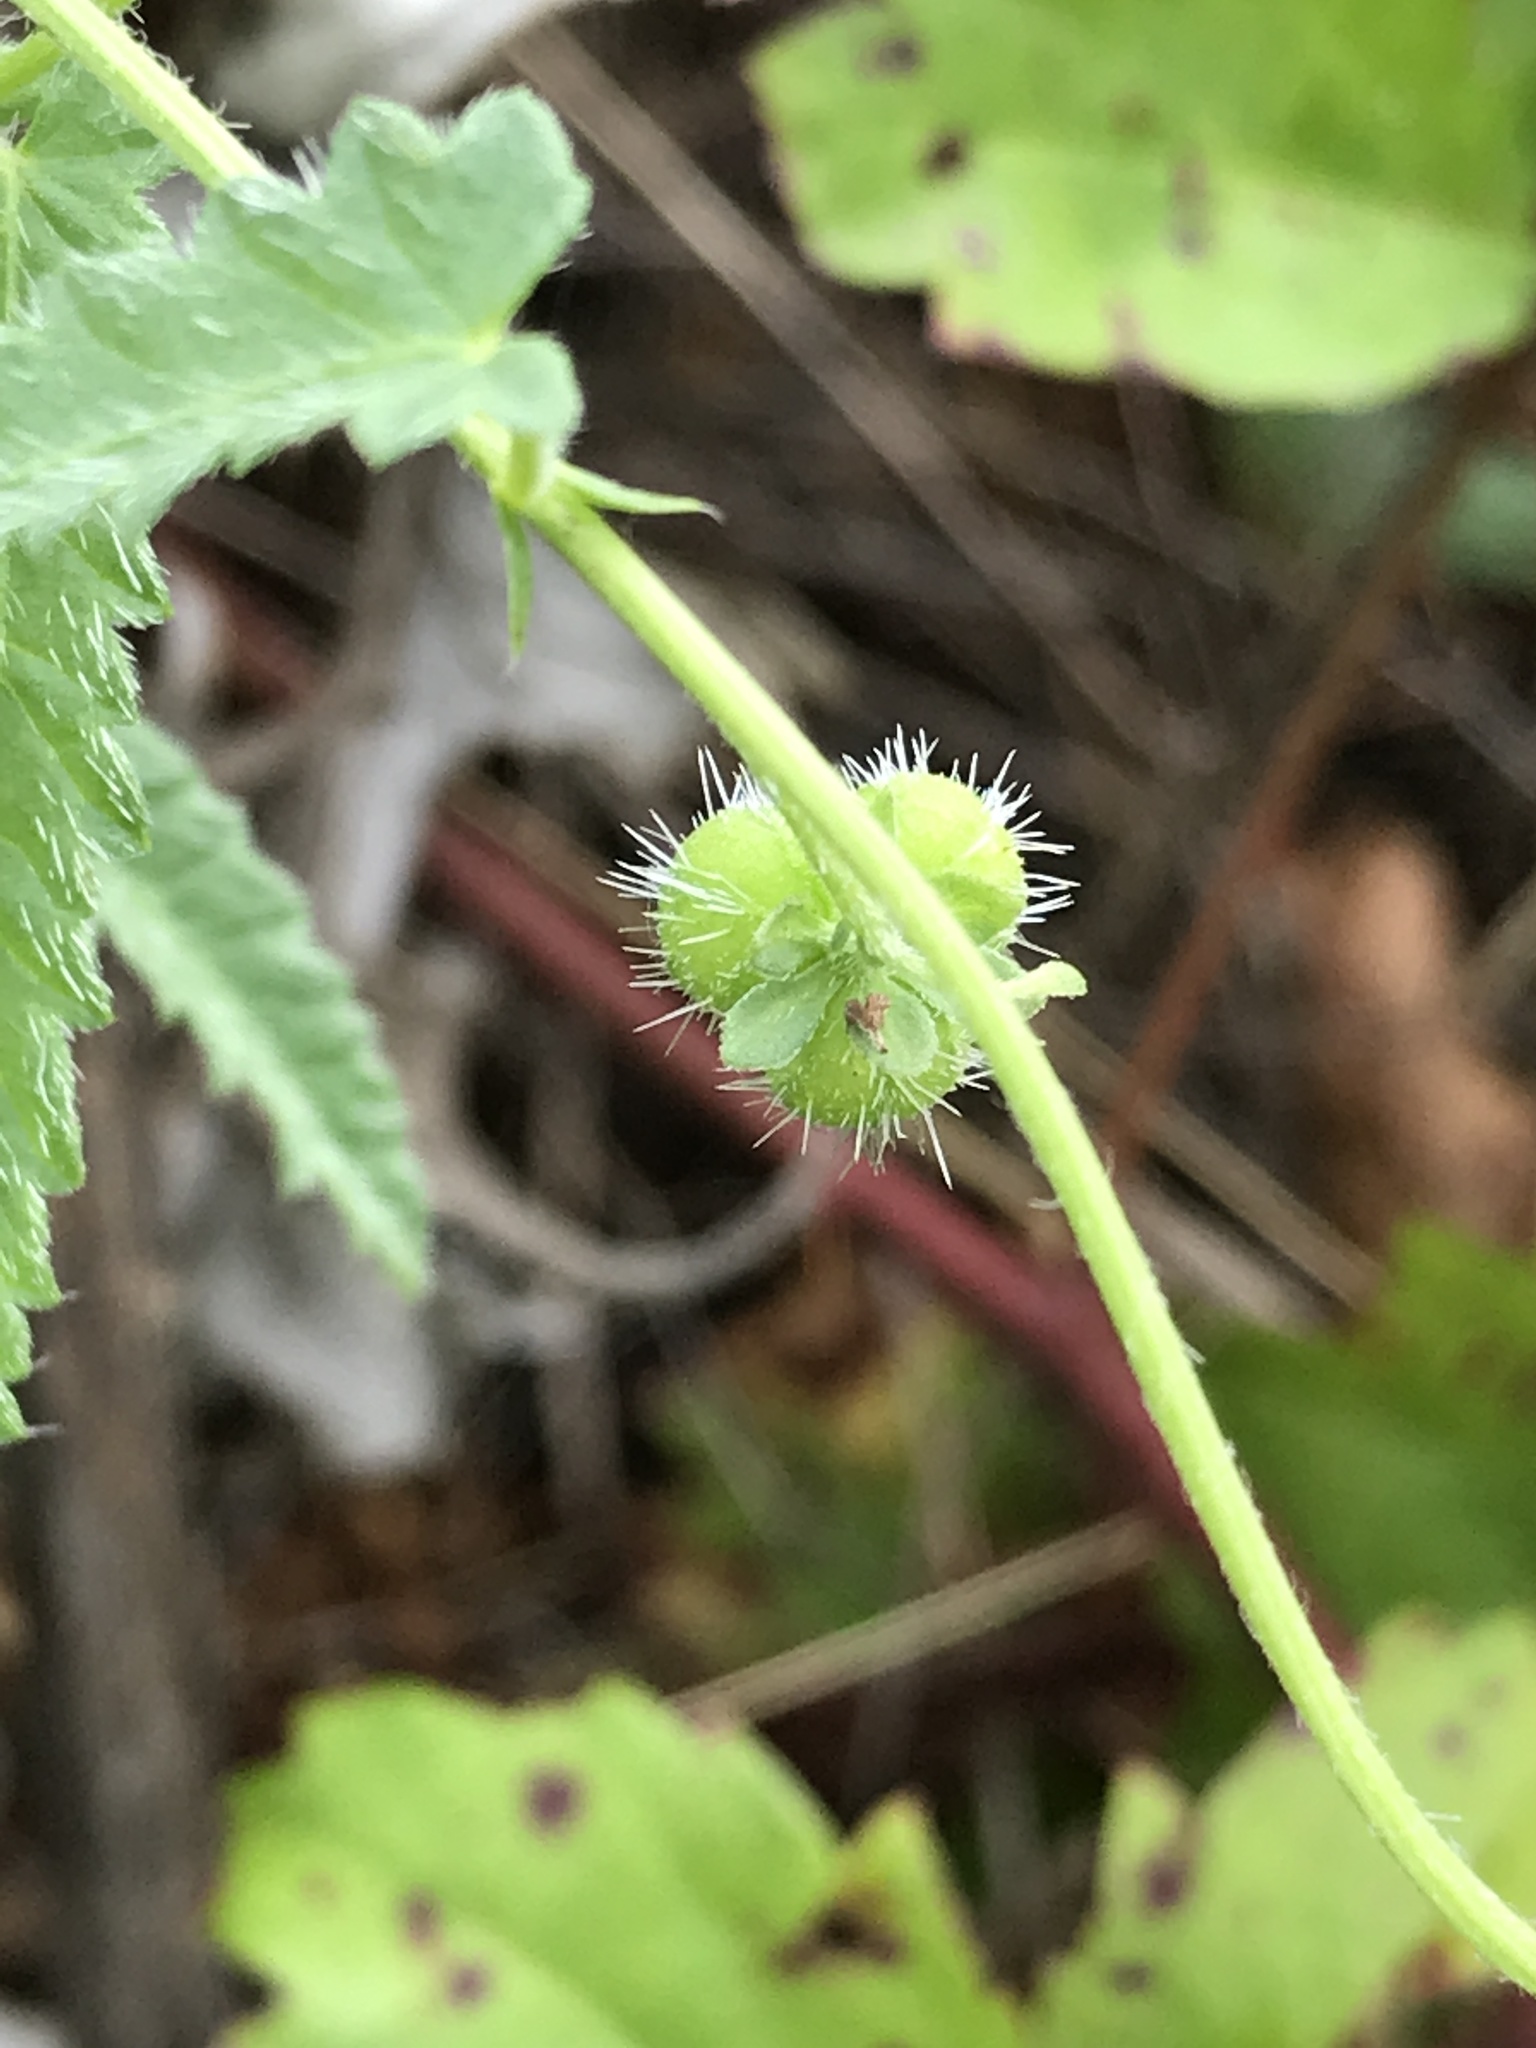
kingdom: Plantae
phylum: Tracheophyta
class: Magnoliopsida
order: Malpighiales
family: Euphorbiaceae
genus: Tragia
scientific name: Tragia ramosa
